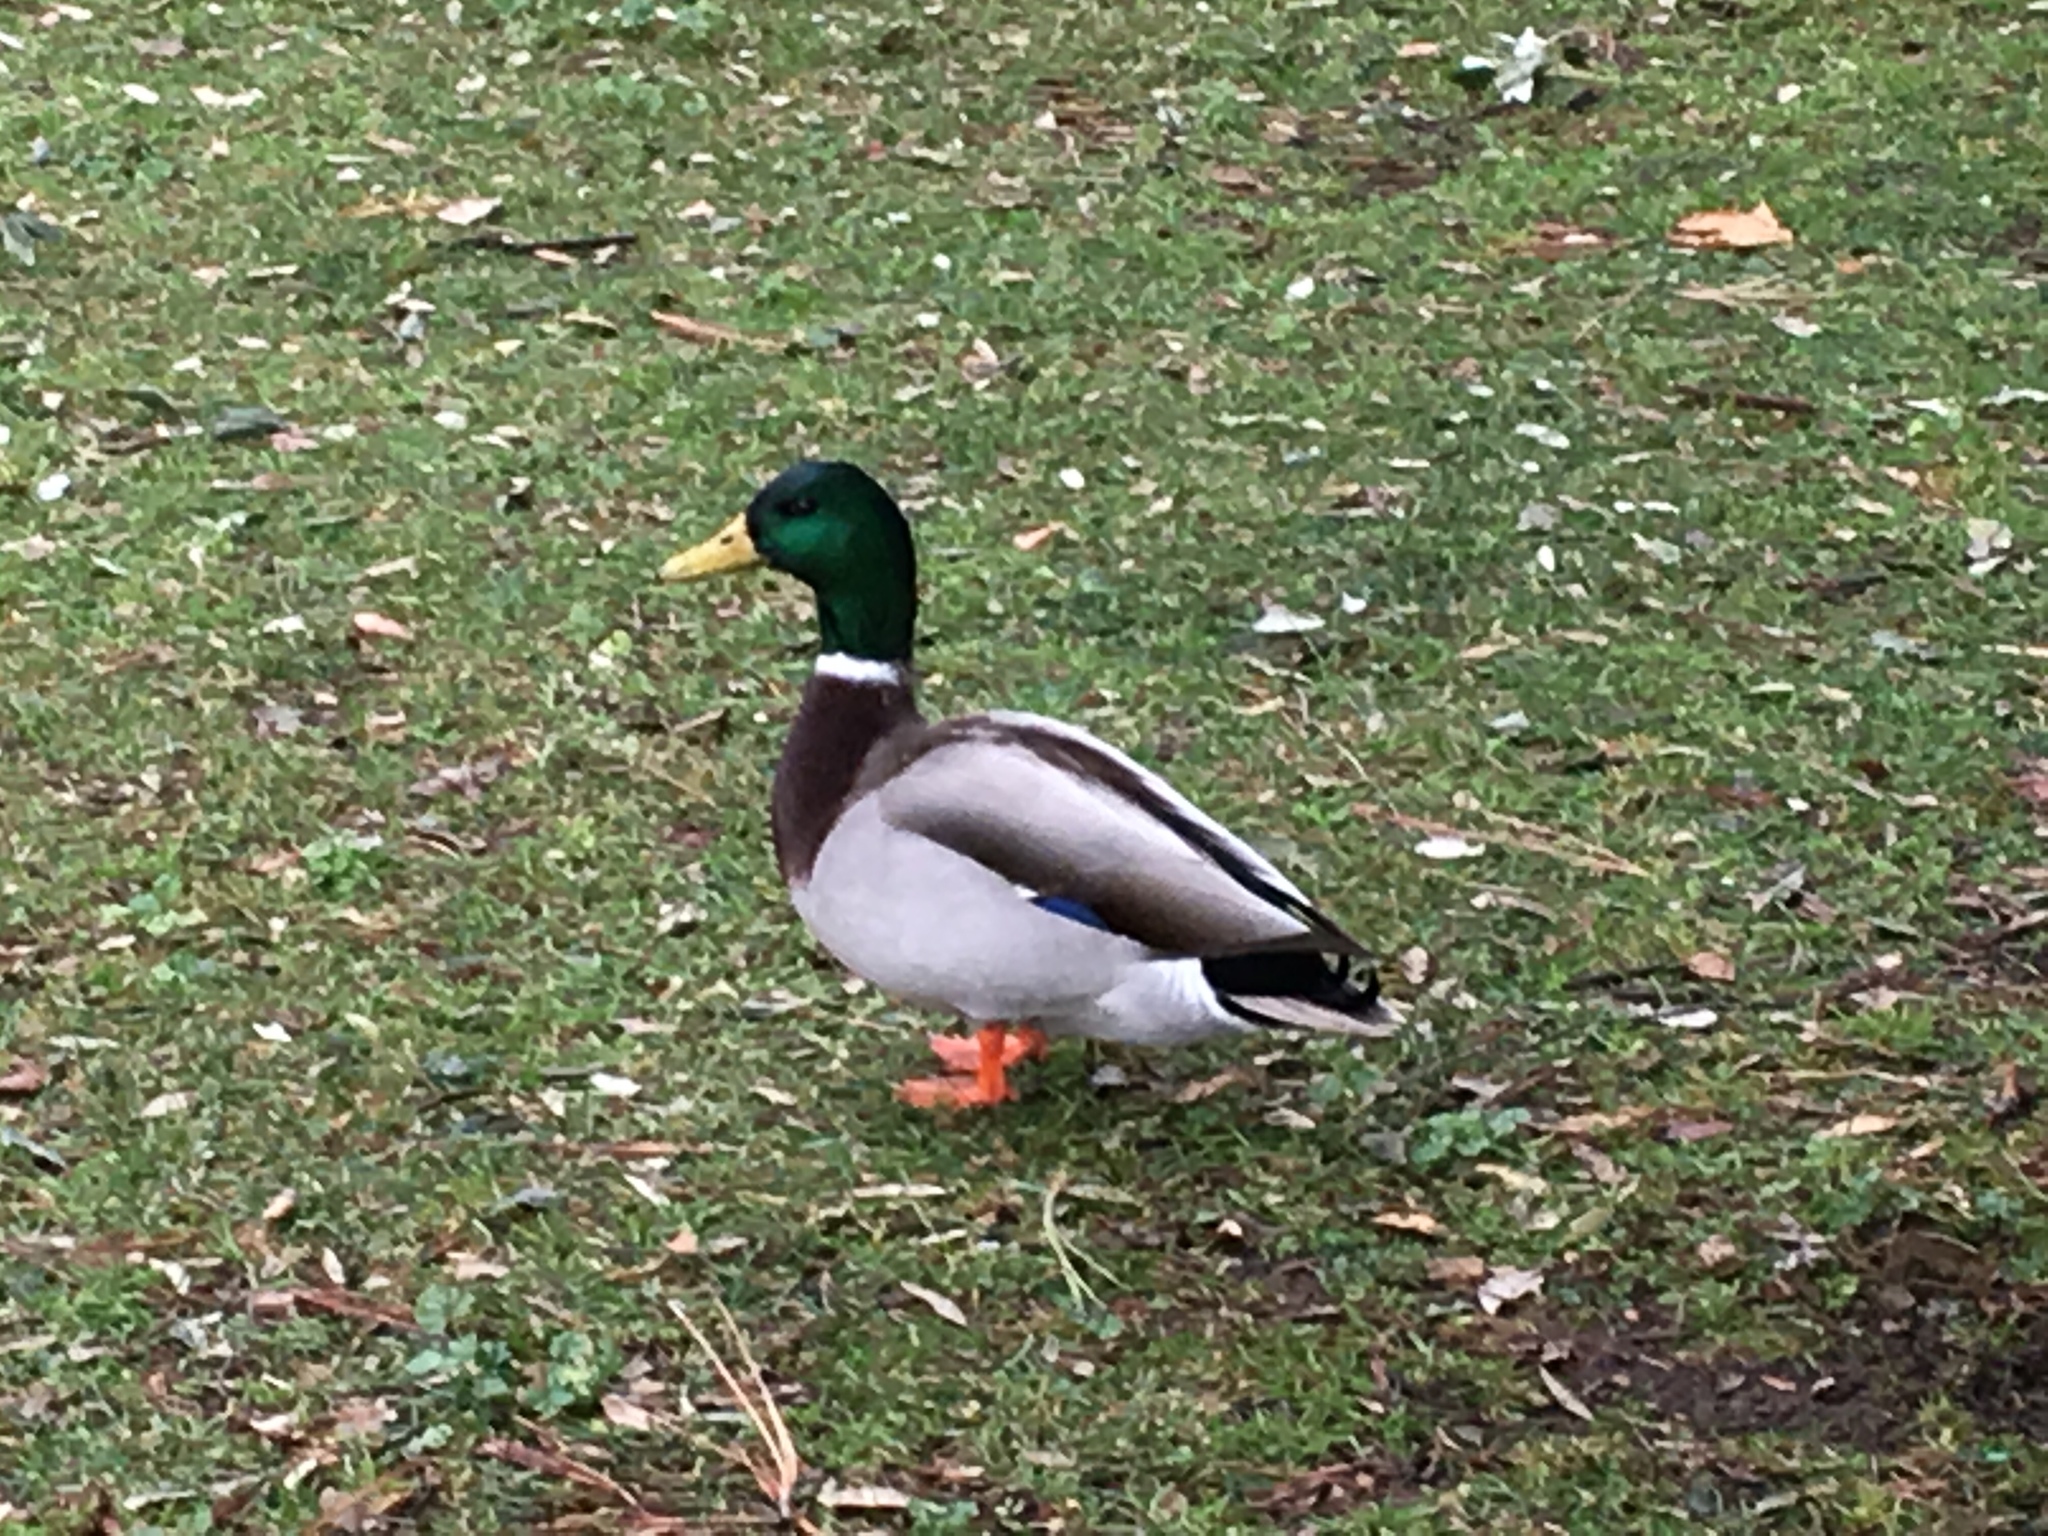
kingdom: Animalia
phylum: Chordata
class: Aves
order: Anseriformes
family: Anatidae
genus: Anas
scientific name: Anas platyrhynchos
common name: Mallard
